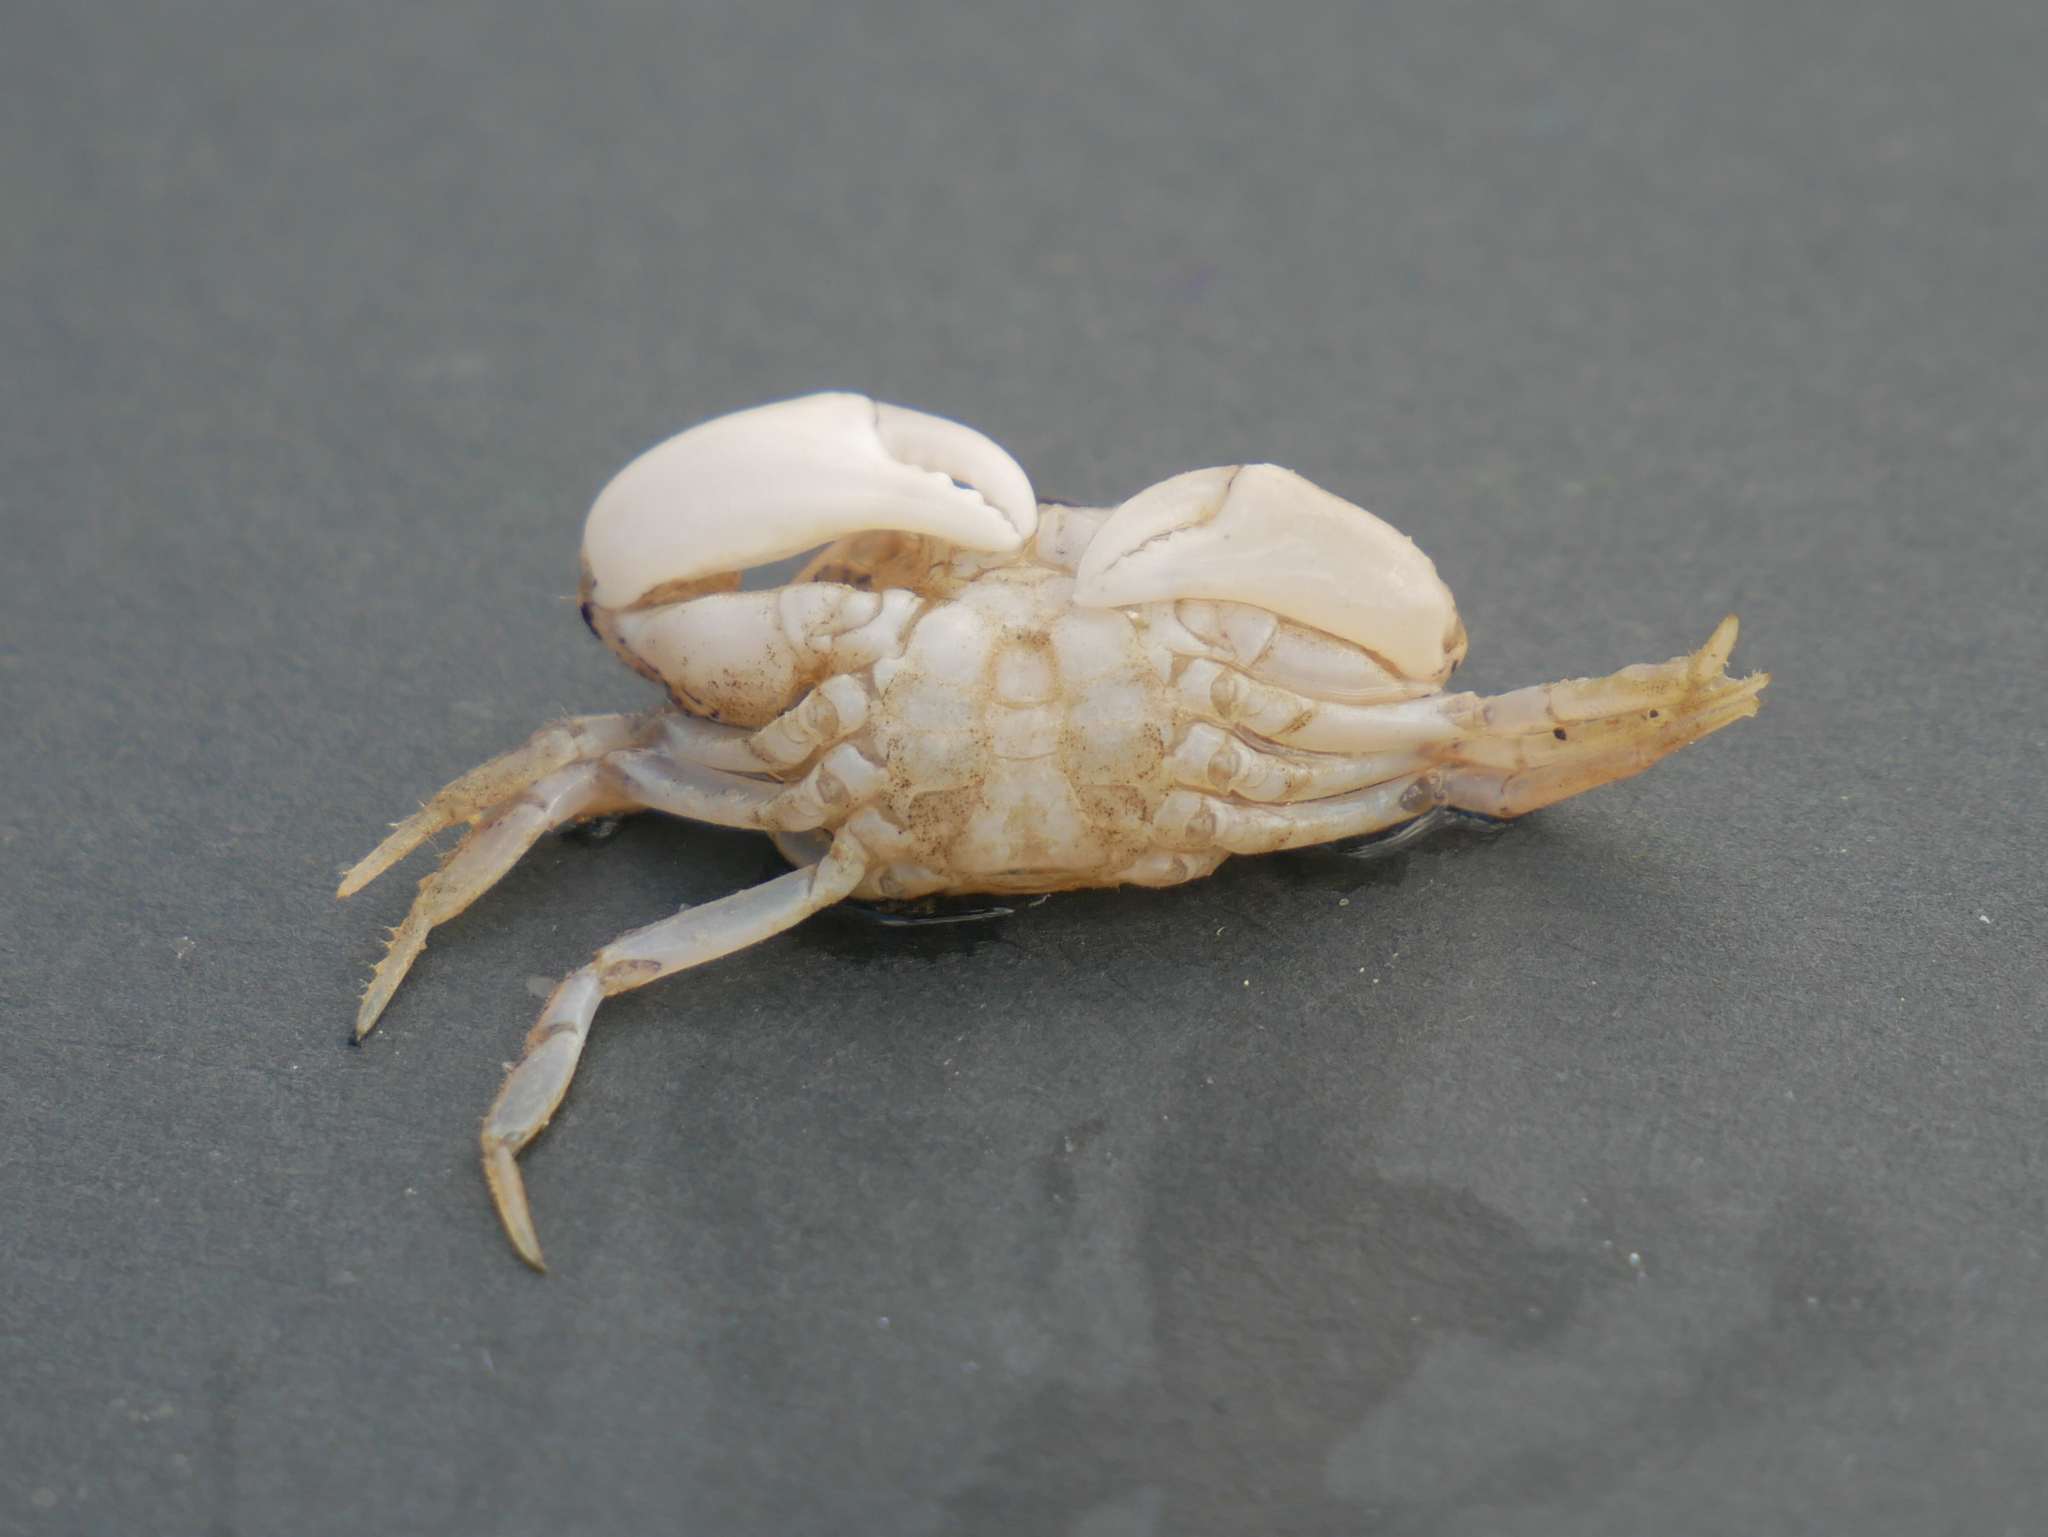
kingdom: Animalia
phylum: Arthropoda
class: Malacostraca
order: Decapoda
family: Panopeidae
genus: Rhithropanopeus
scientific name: Rhithropanopeus harrisii
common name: Dwarf crab
